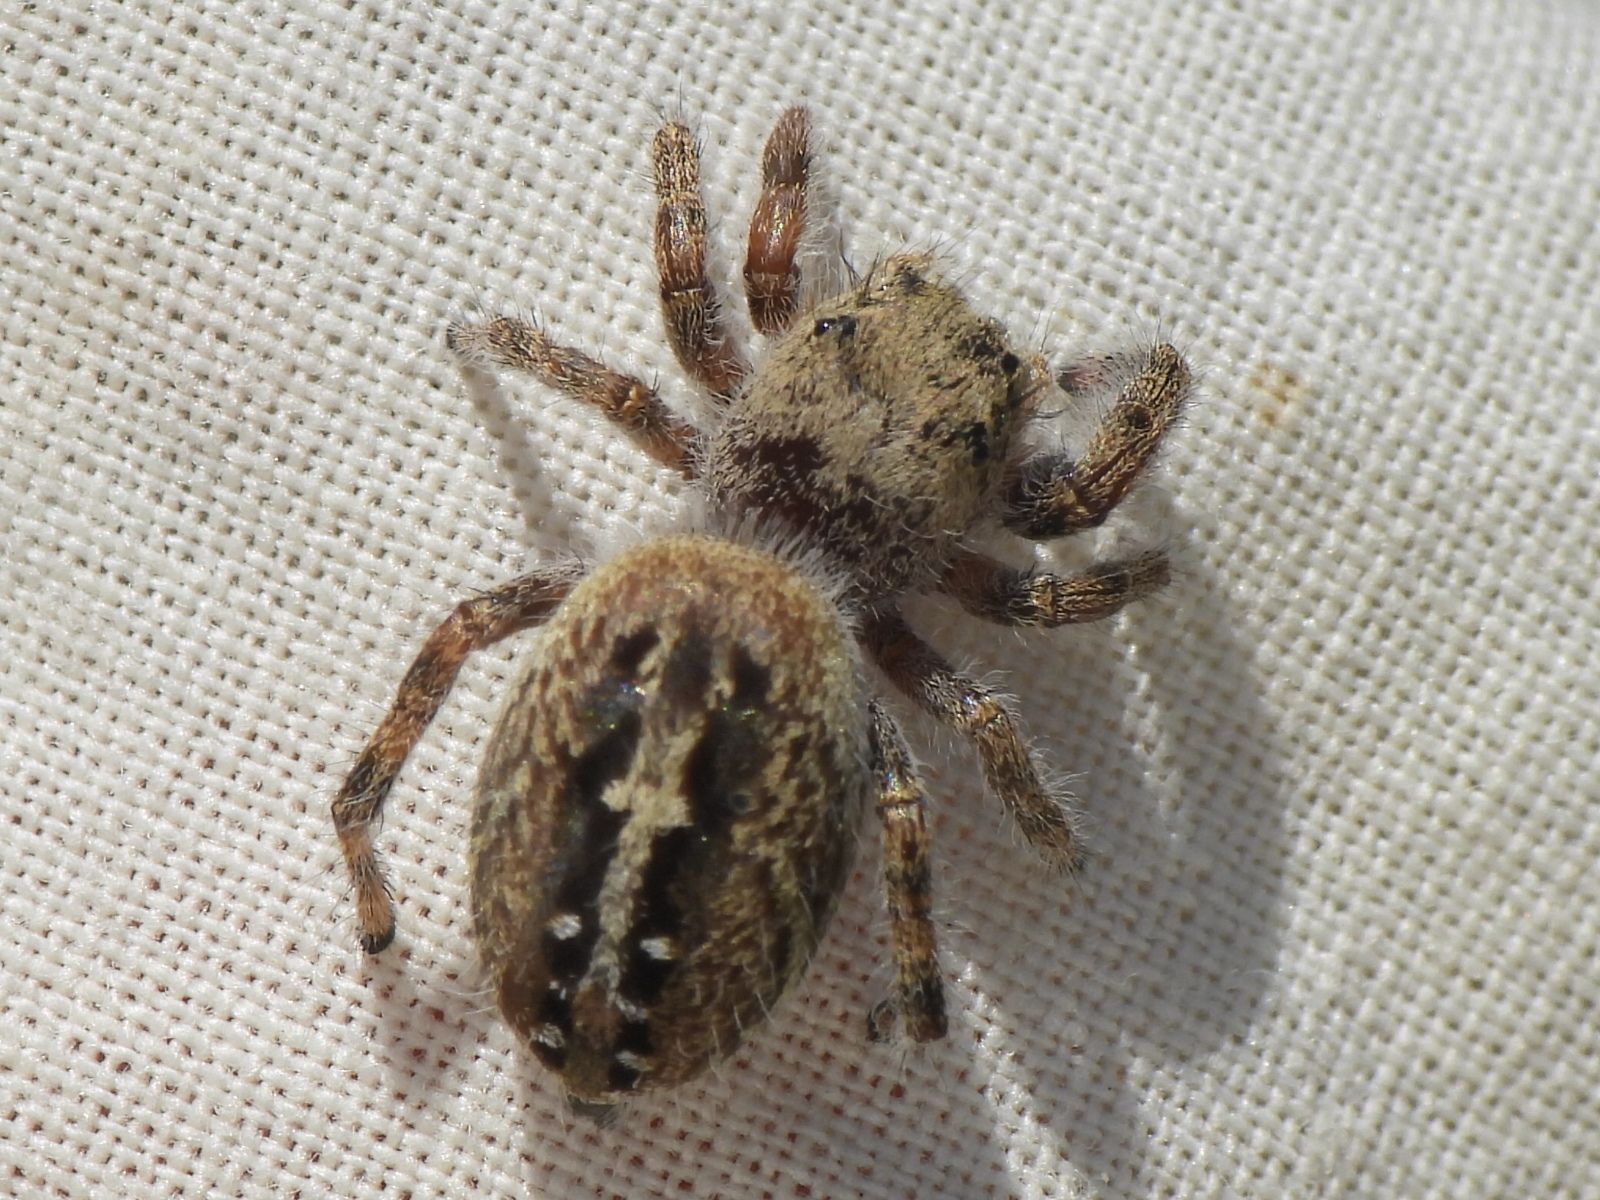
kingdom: Animalia
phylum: Arthropoda
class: Arachnida
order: Araneae
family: Salticidae
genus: Phidippus
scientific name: Phidippus texanus
